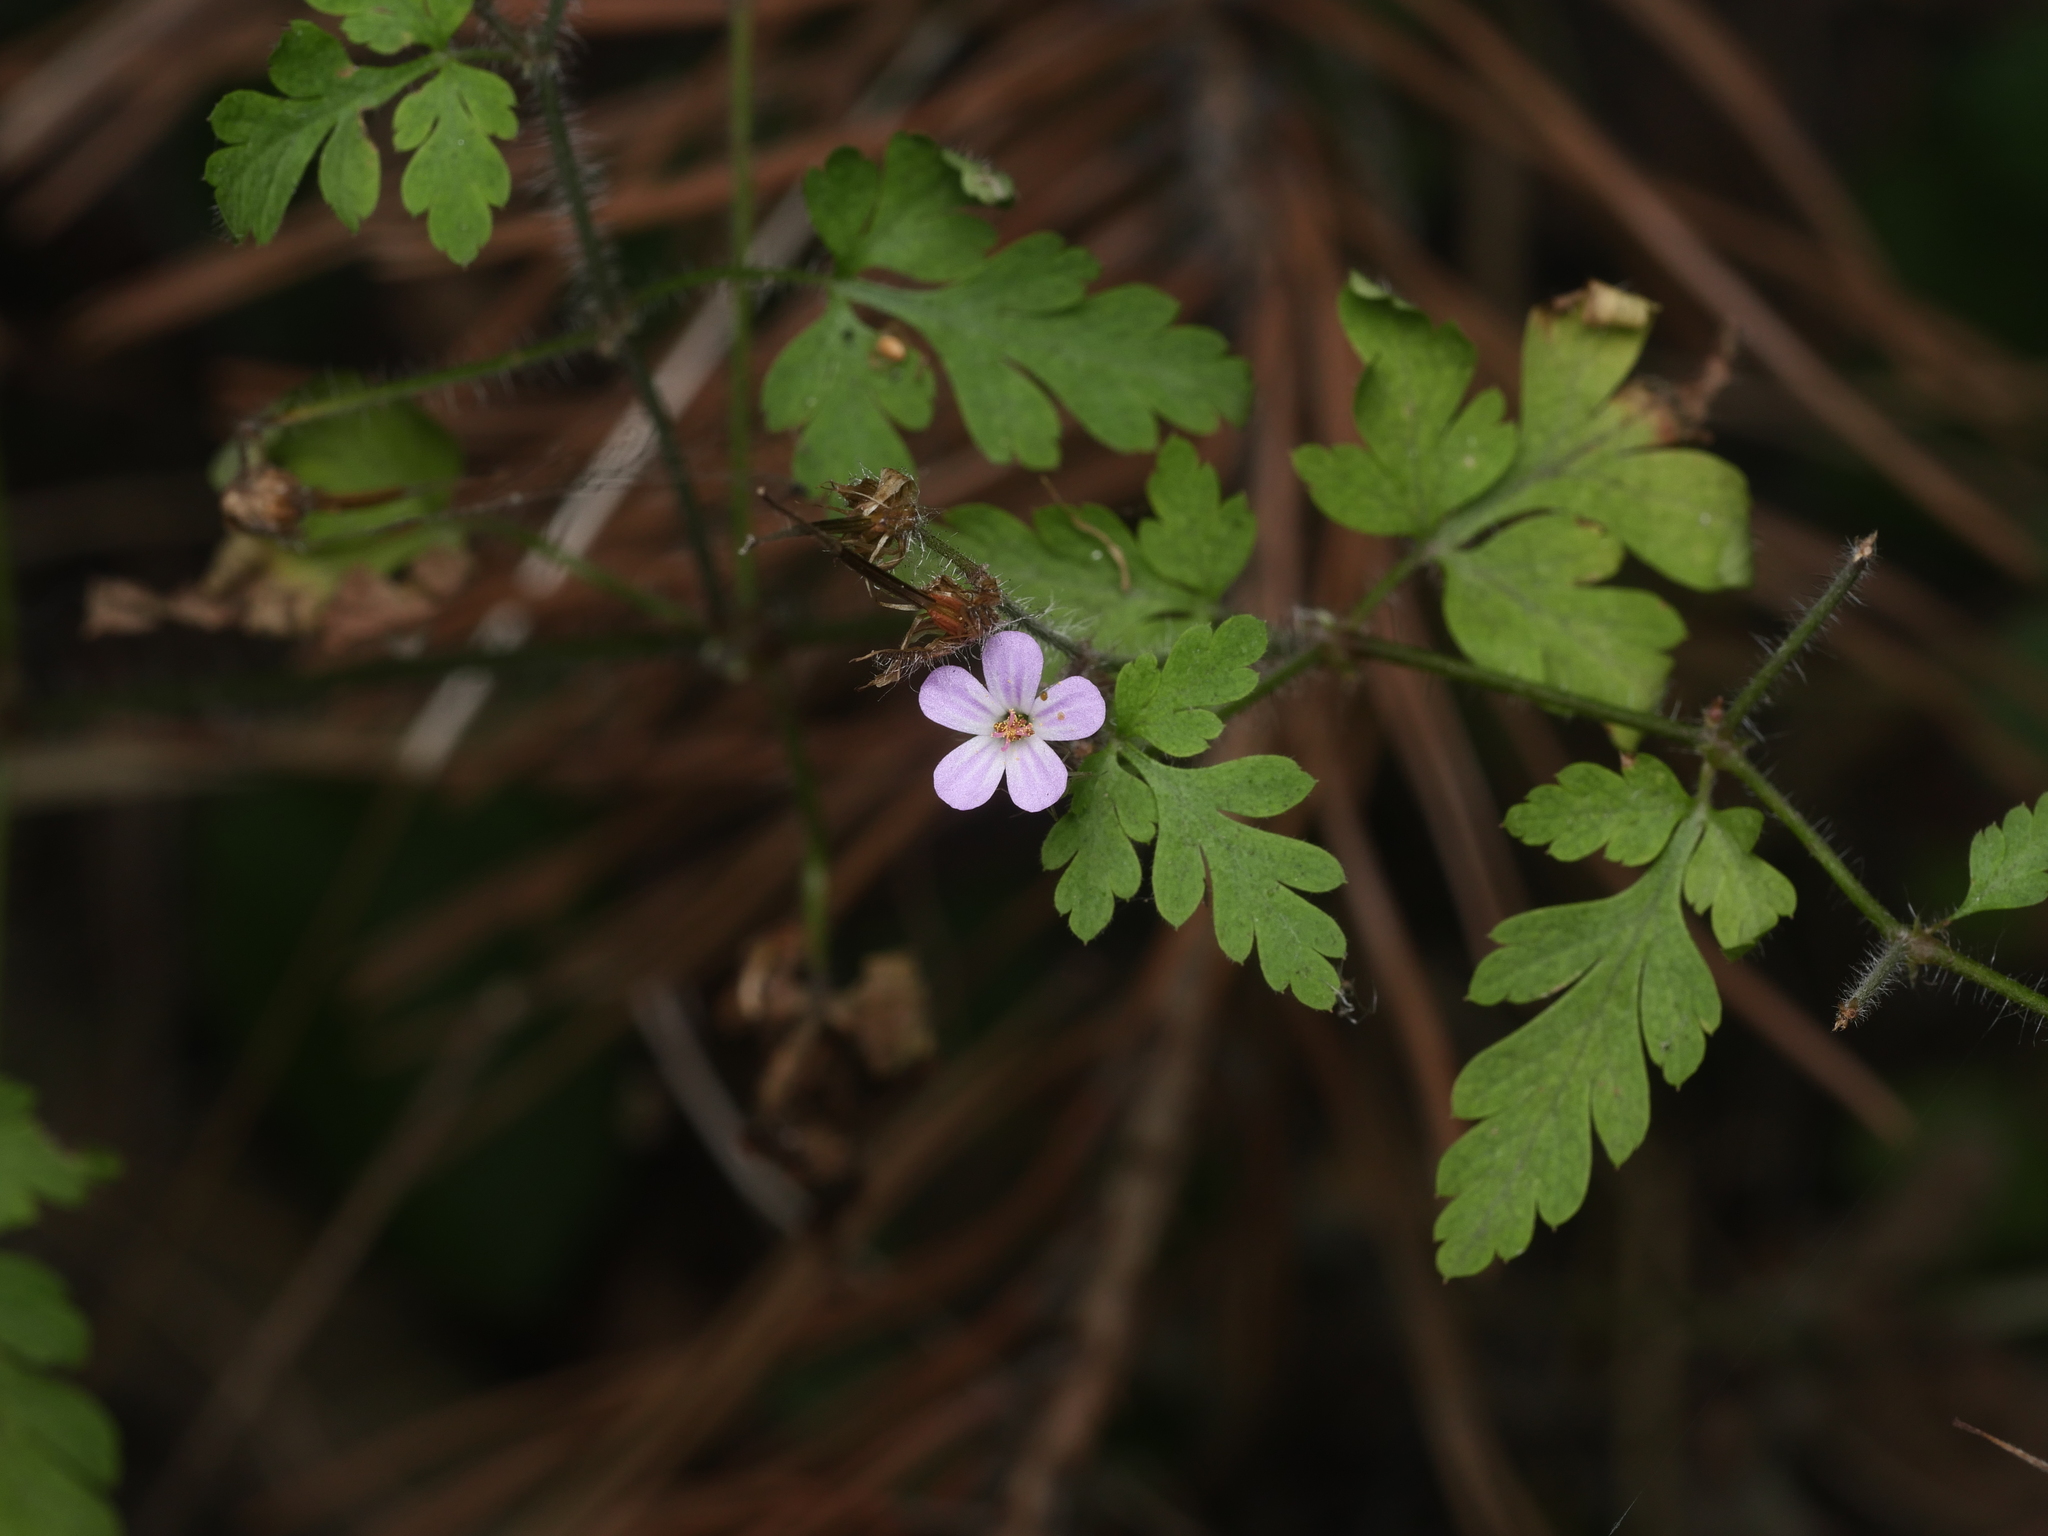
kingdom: Plantae
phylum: Tracheophyta
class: Magnoliopsida
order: Geraniales
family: Geraniaceae
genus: Geranium
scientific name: Geranium robertianum
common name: Herb-robert
